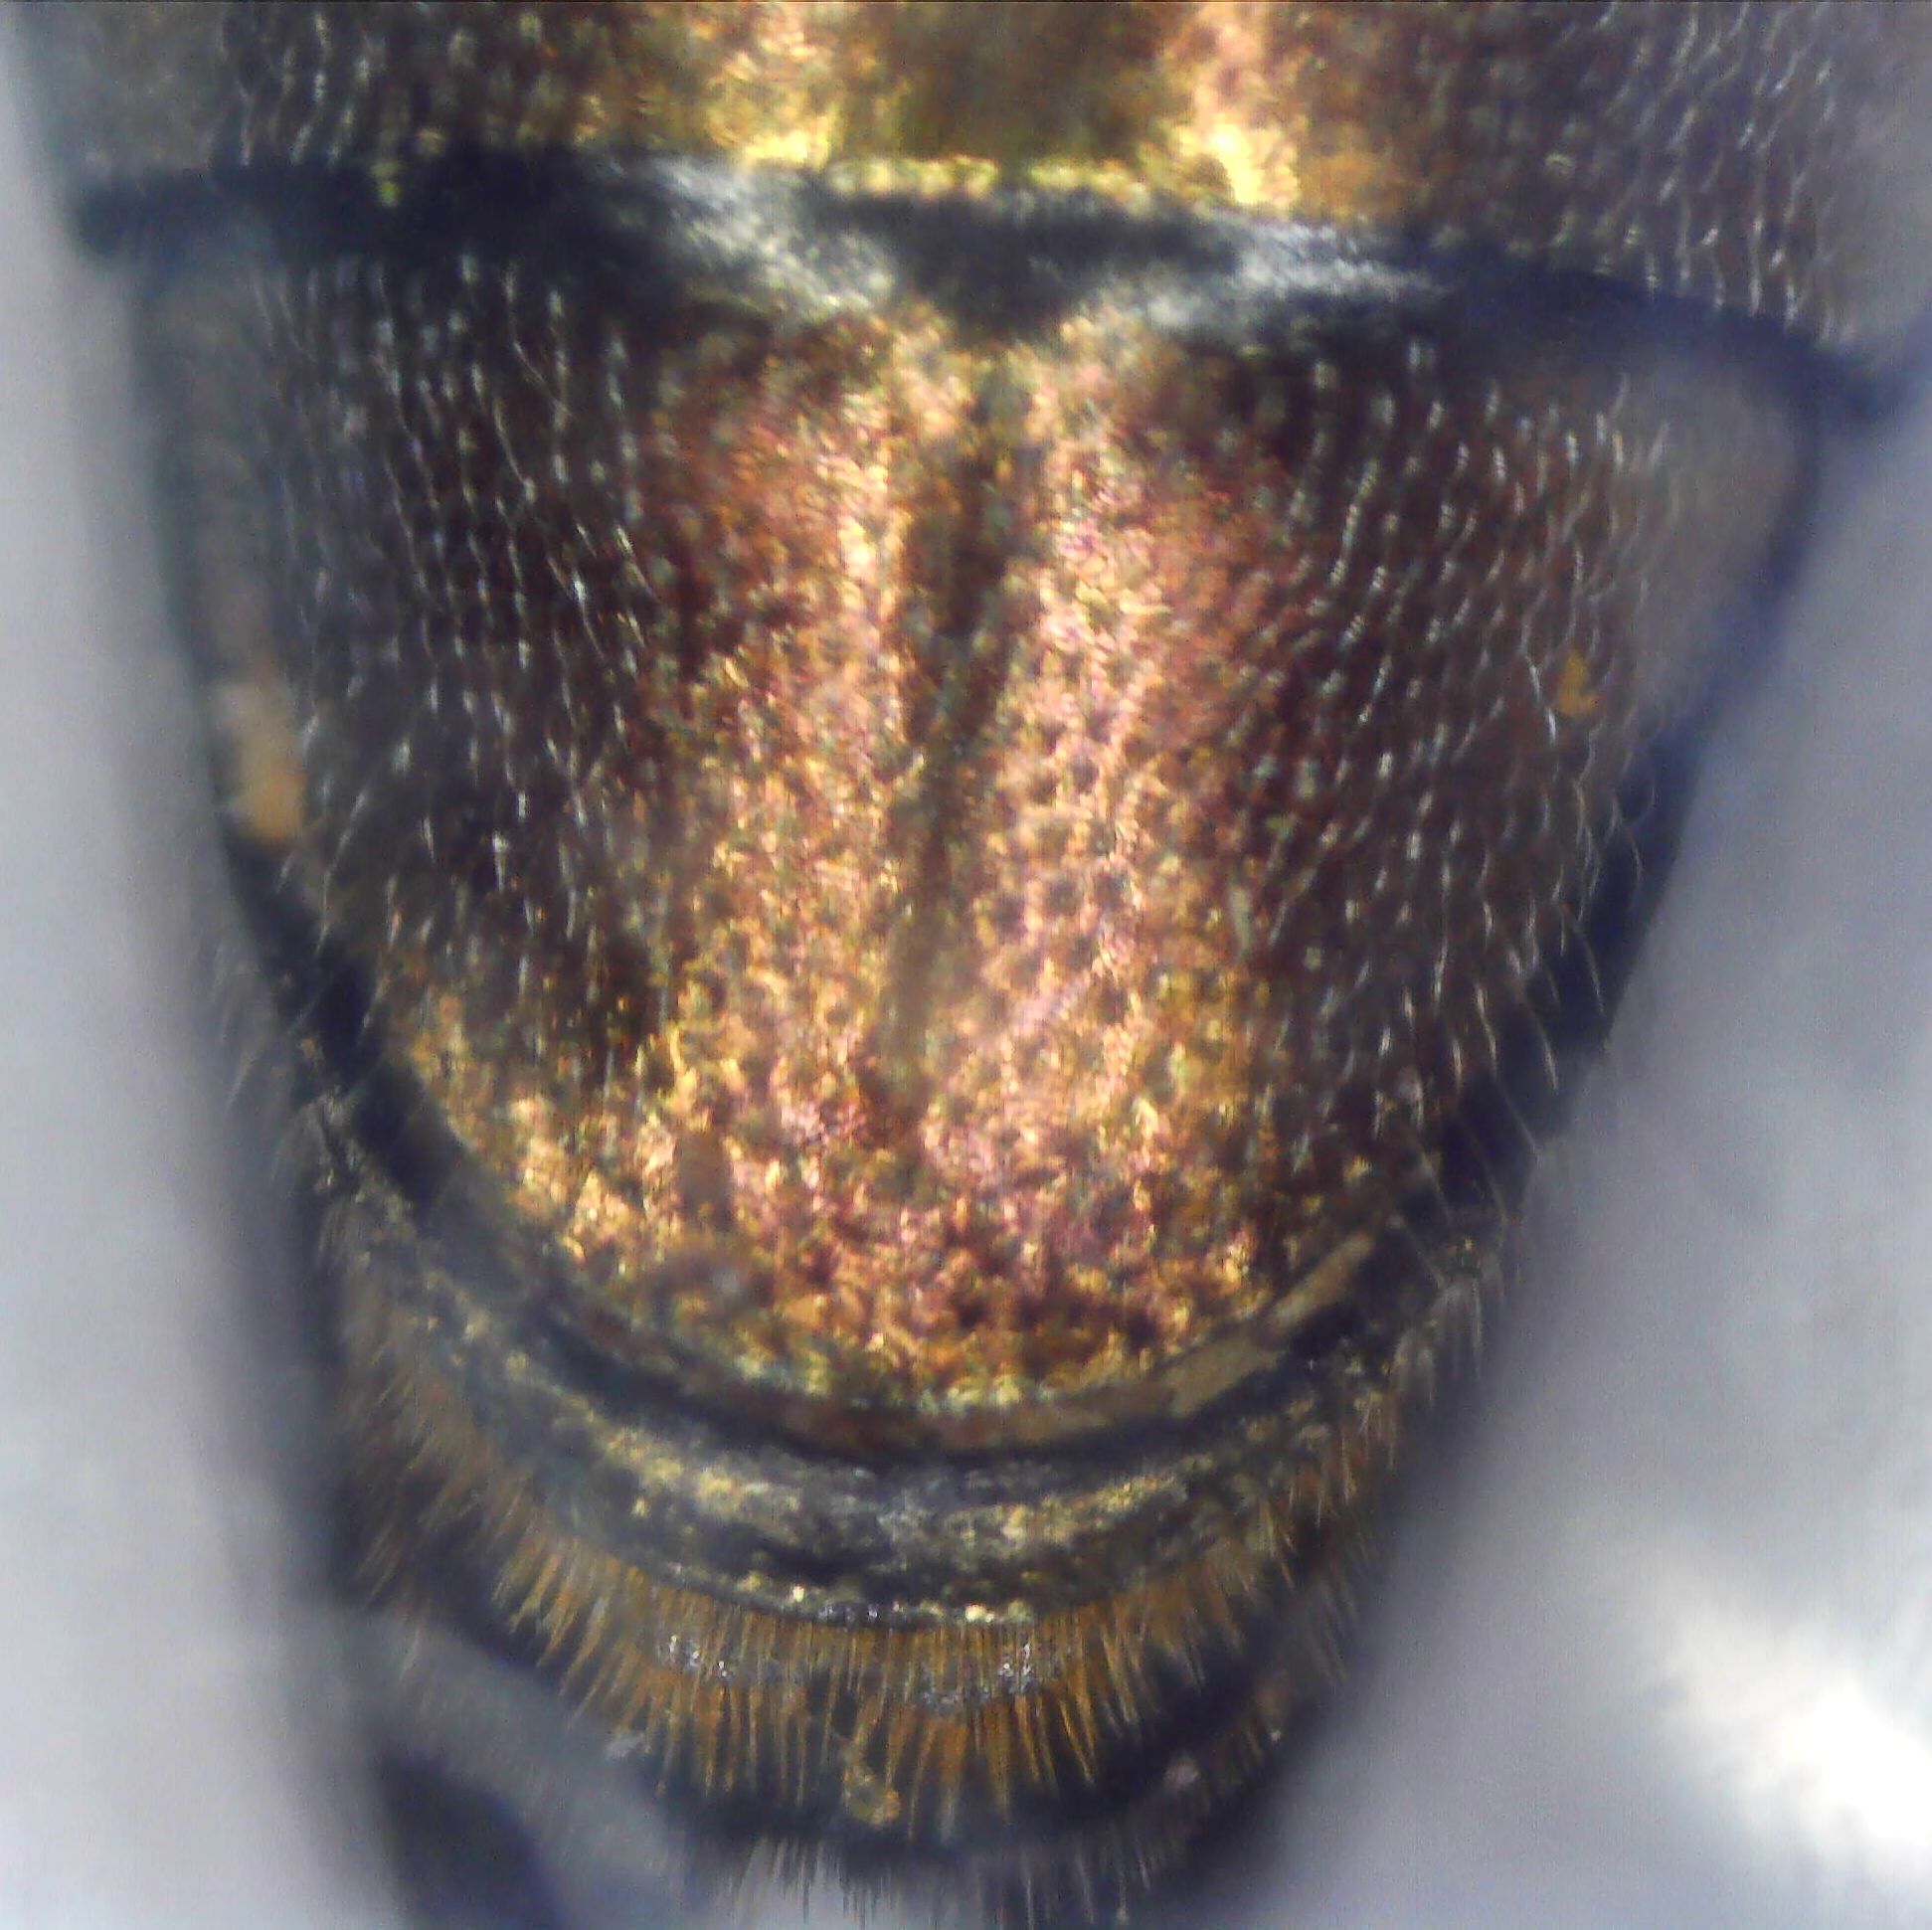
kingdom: Animalia
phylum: Arthropoda
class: Insecta
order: Coleoptera
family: Buprestidae
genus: Agrilus
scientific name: Agrilus sinuatus
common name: Metallic wood-boring beetle
